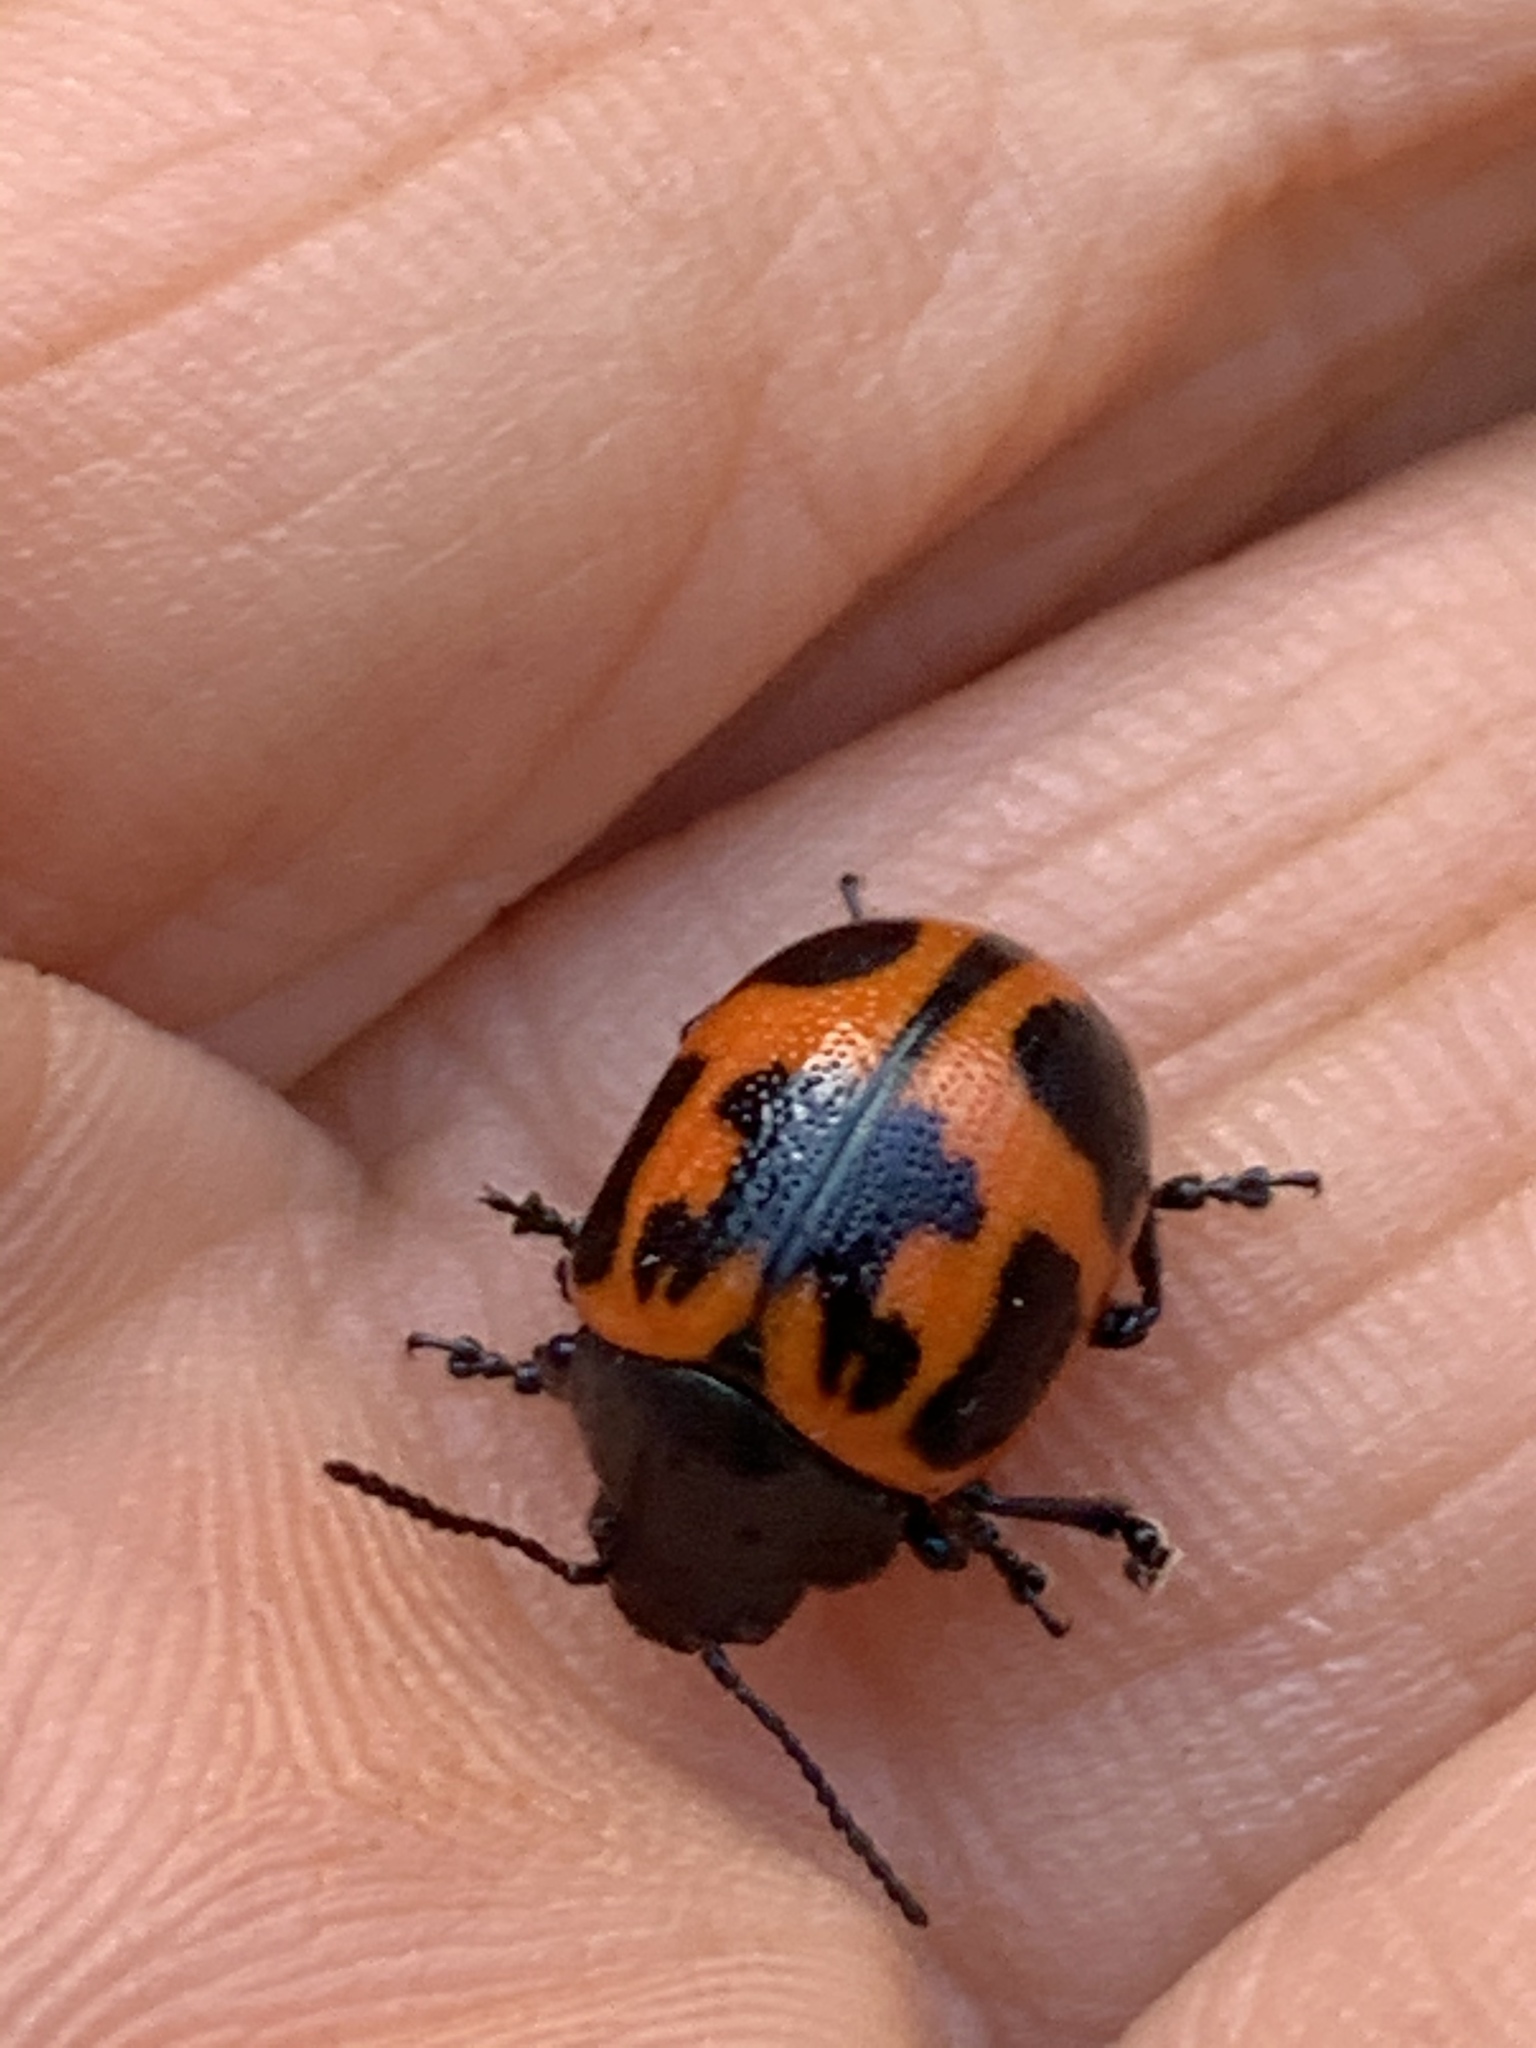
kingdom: Animalia
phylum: Arthropoda
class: Insecta
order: Coleoptera
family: Chrysomelidae
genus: Labidomera
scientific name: Labidomera clivicollis
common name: Swamp milkweed leaf beetle
